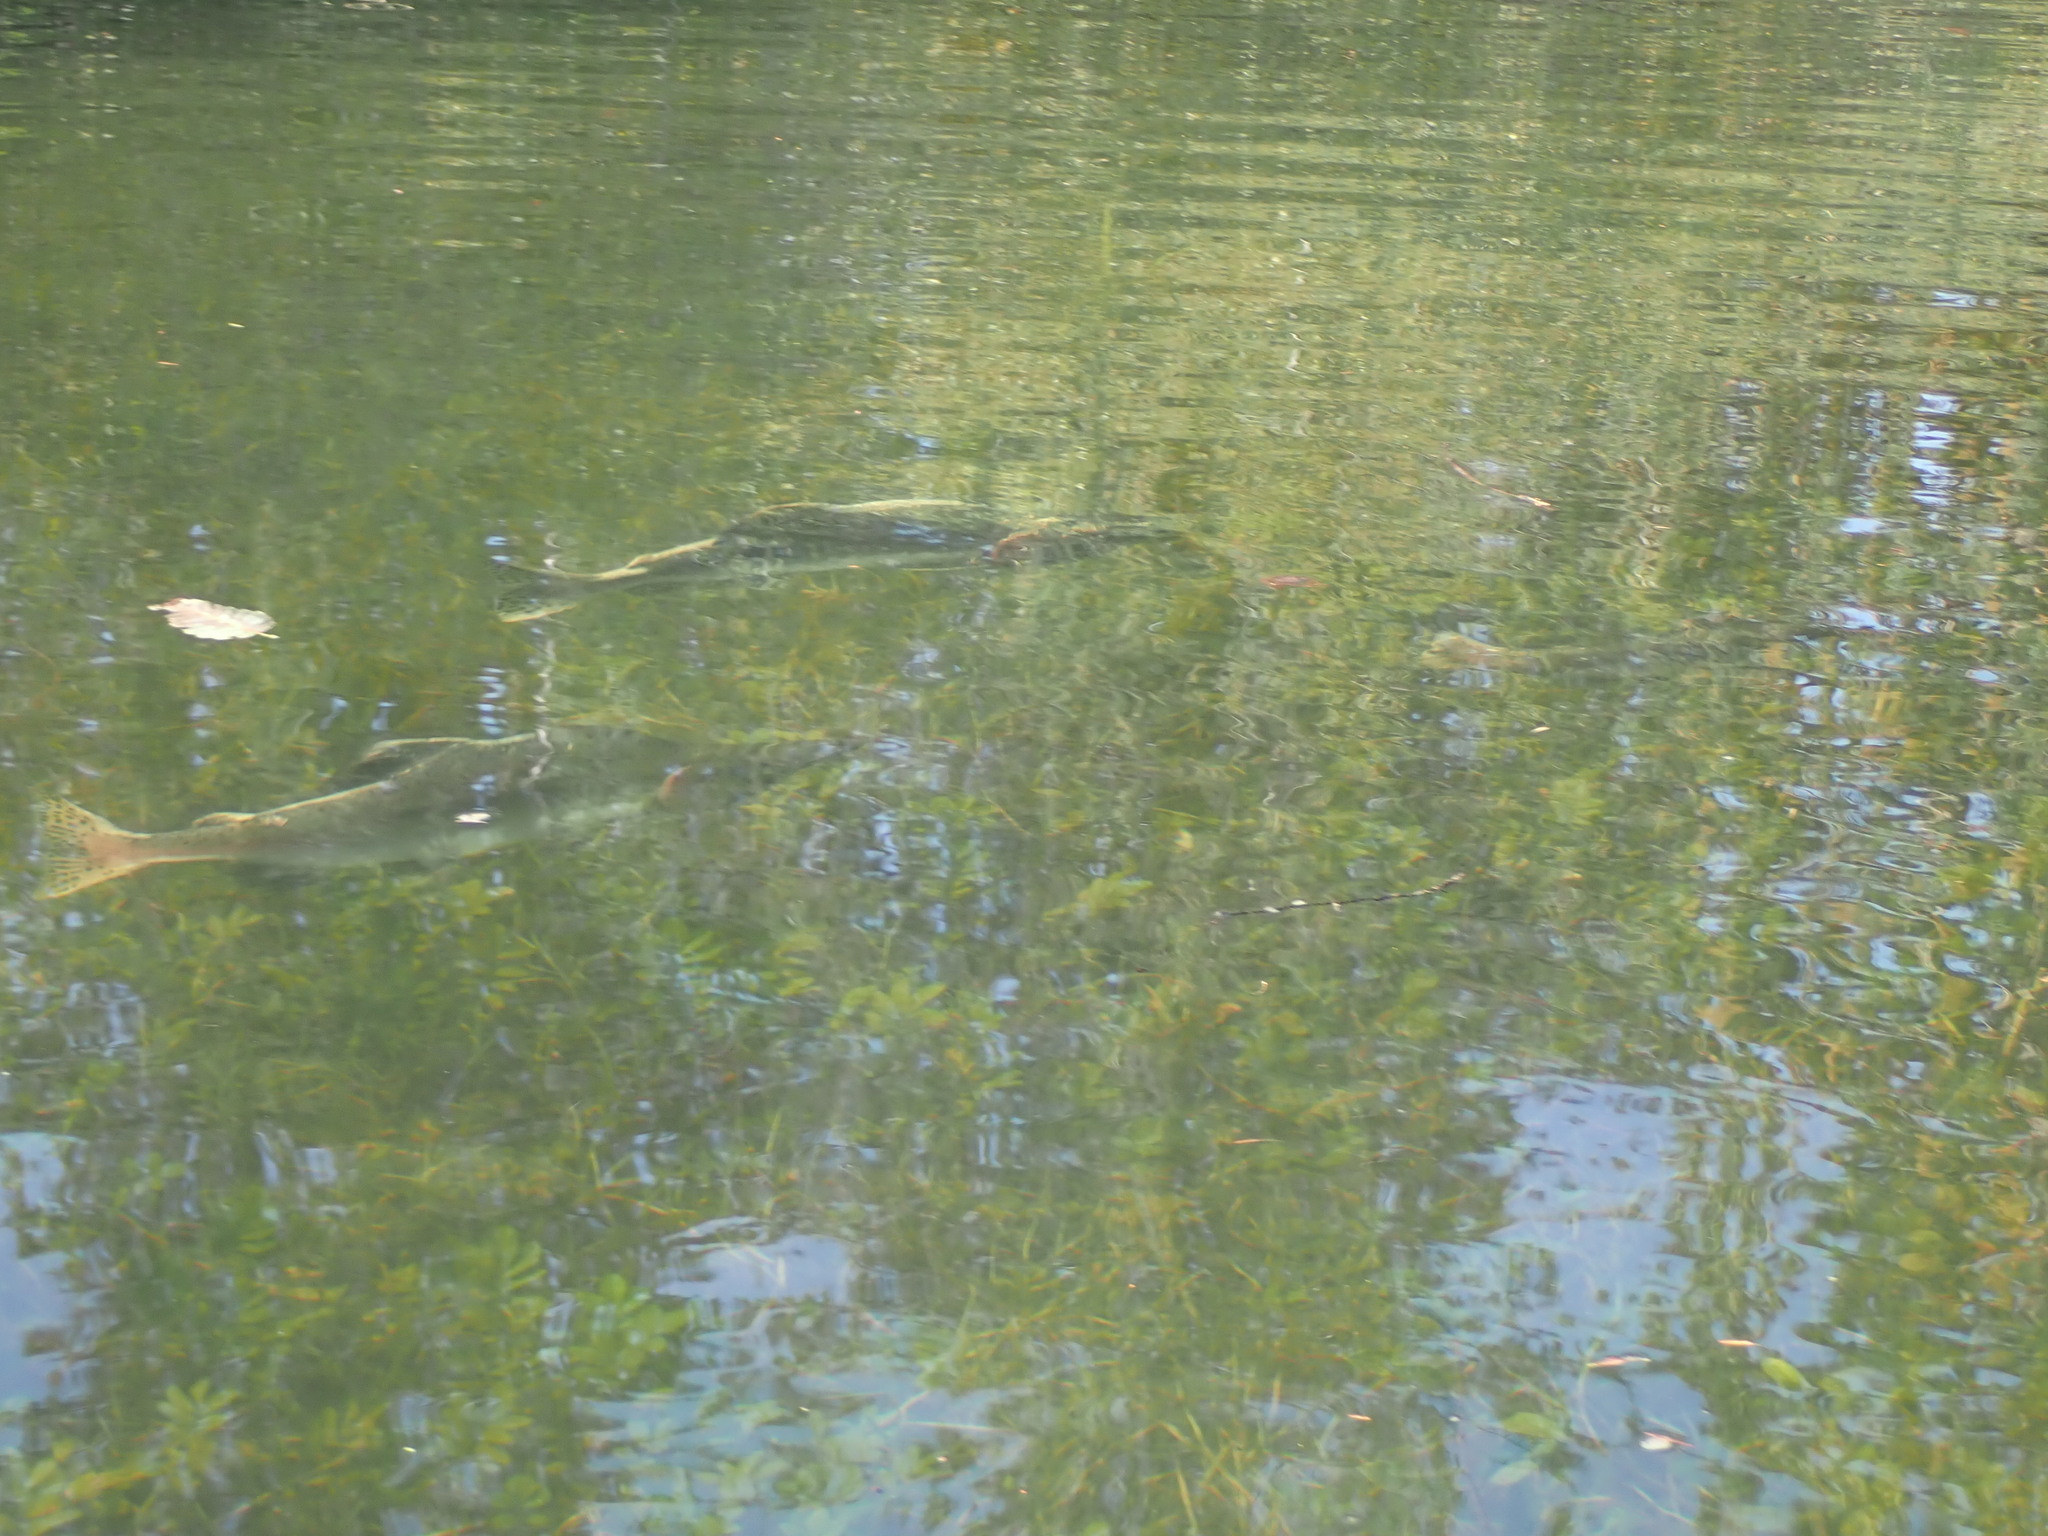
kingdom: Animalia
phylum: Chordata
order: Salmoniformes
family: Salmonidae
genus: Oncorhynchus
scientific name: Oncorhynchus gorbuscha
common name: Humpback salmon
